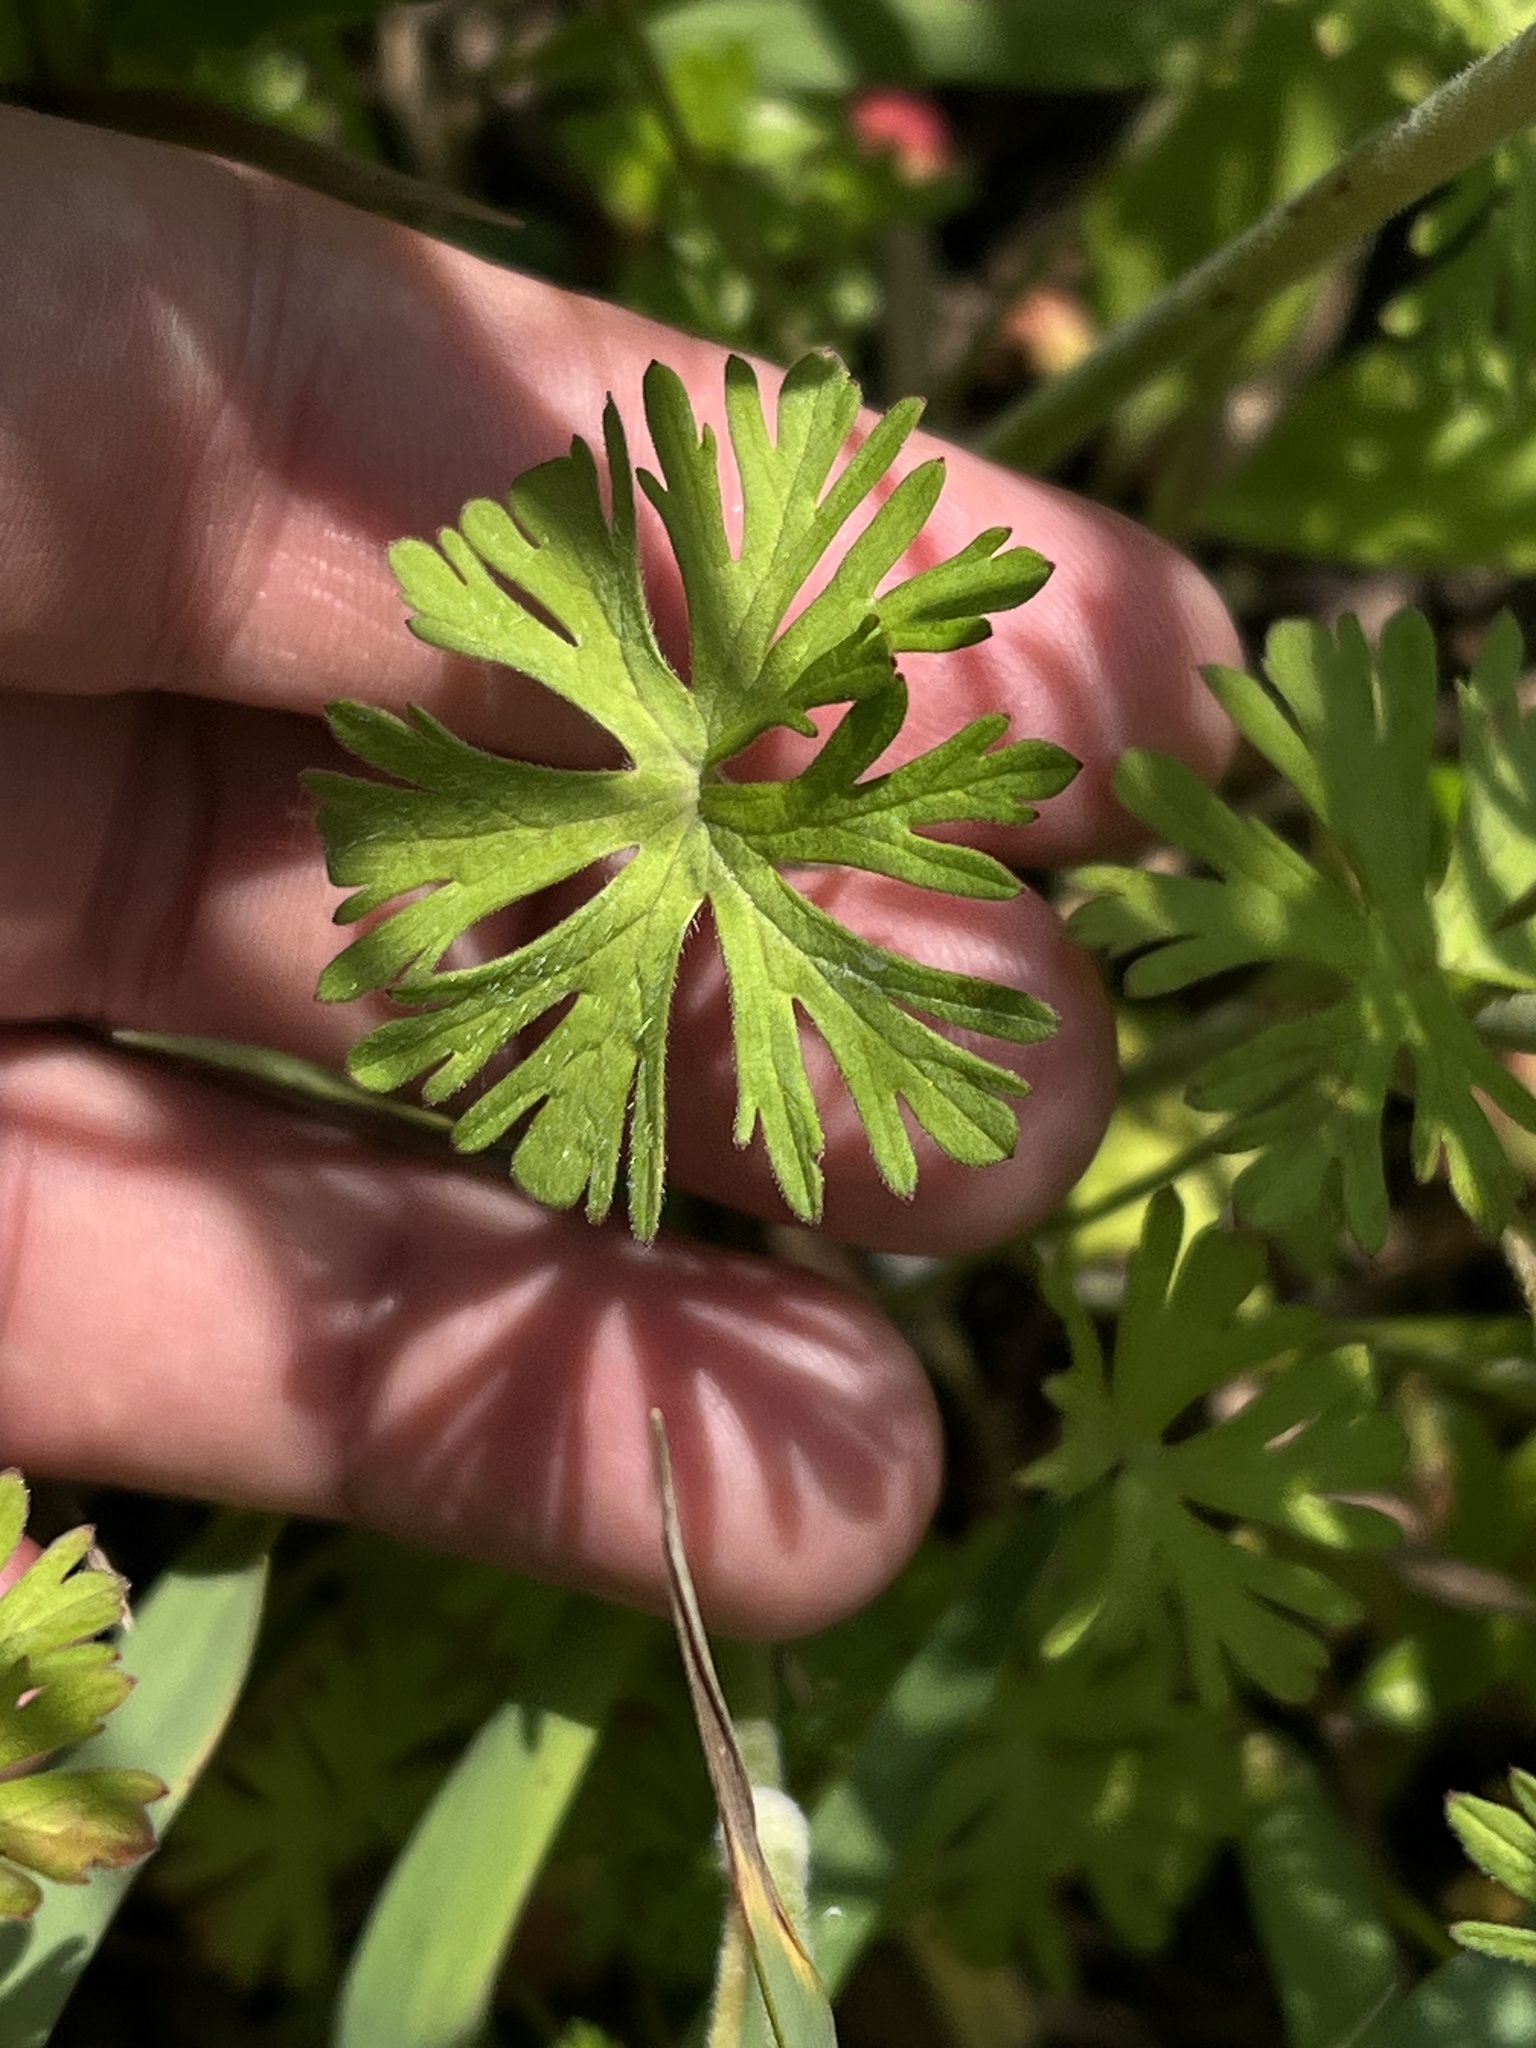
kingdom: Plantae
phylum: Tracheophyta
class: Magnoliopsida
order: Geraniales
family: Geraniaceae
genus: Geranium
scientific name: Geranium dissectum
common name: Cut-leaved crane's-bill
